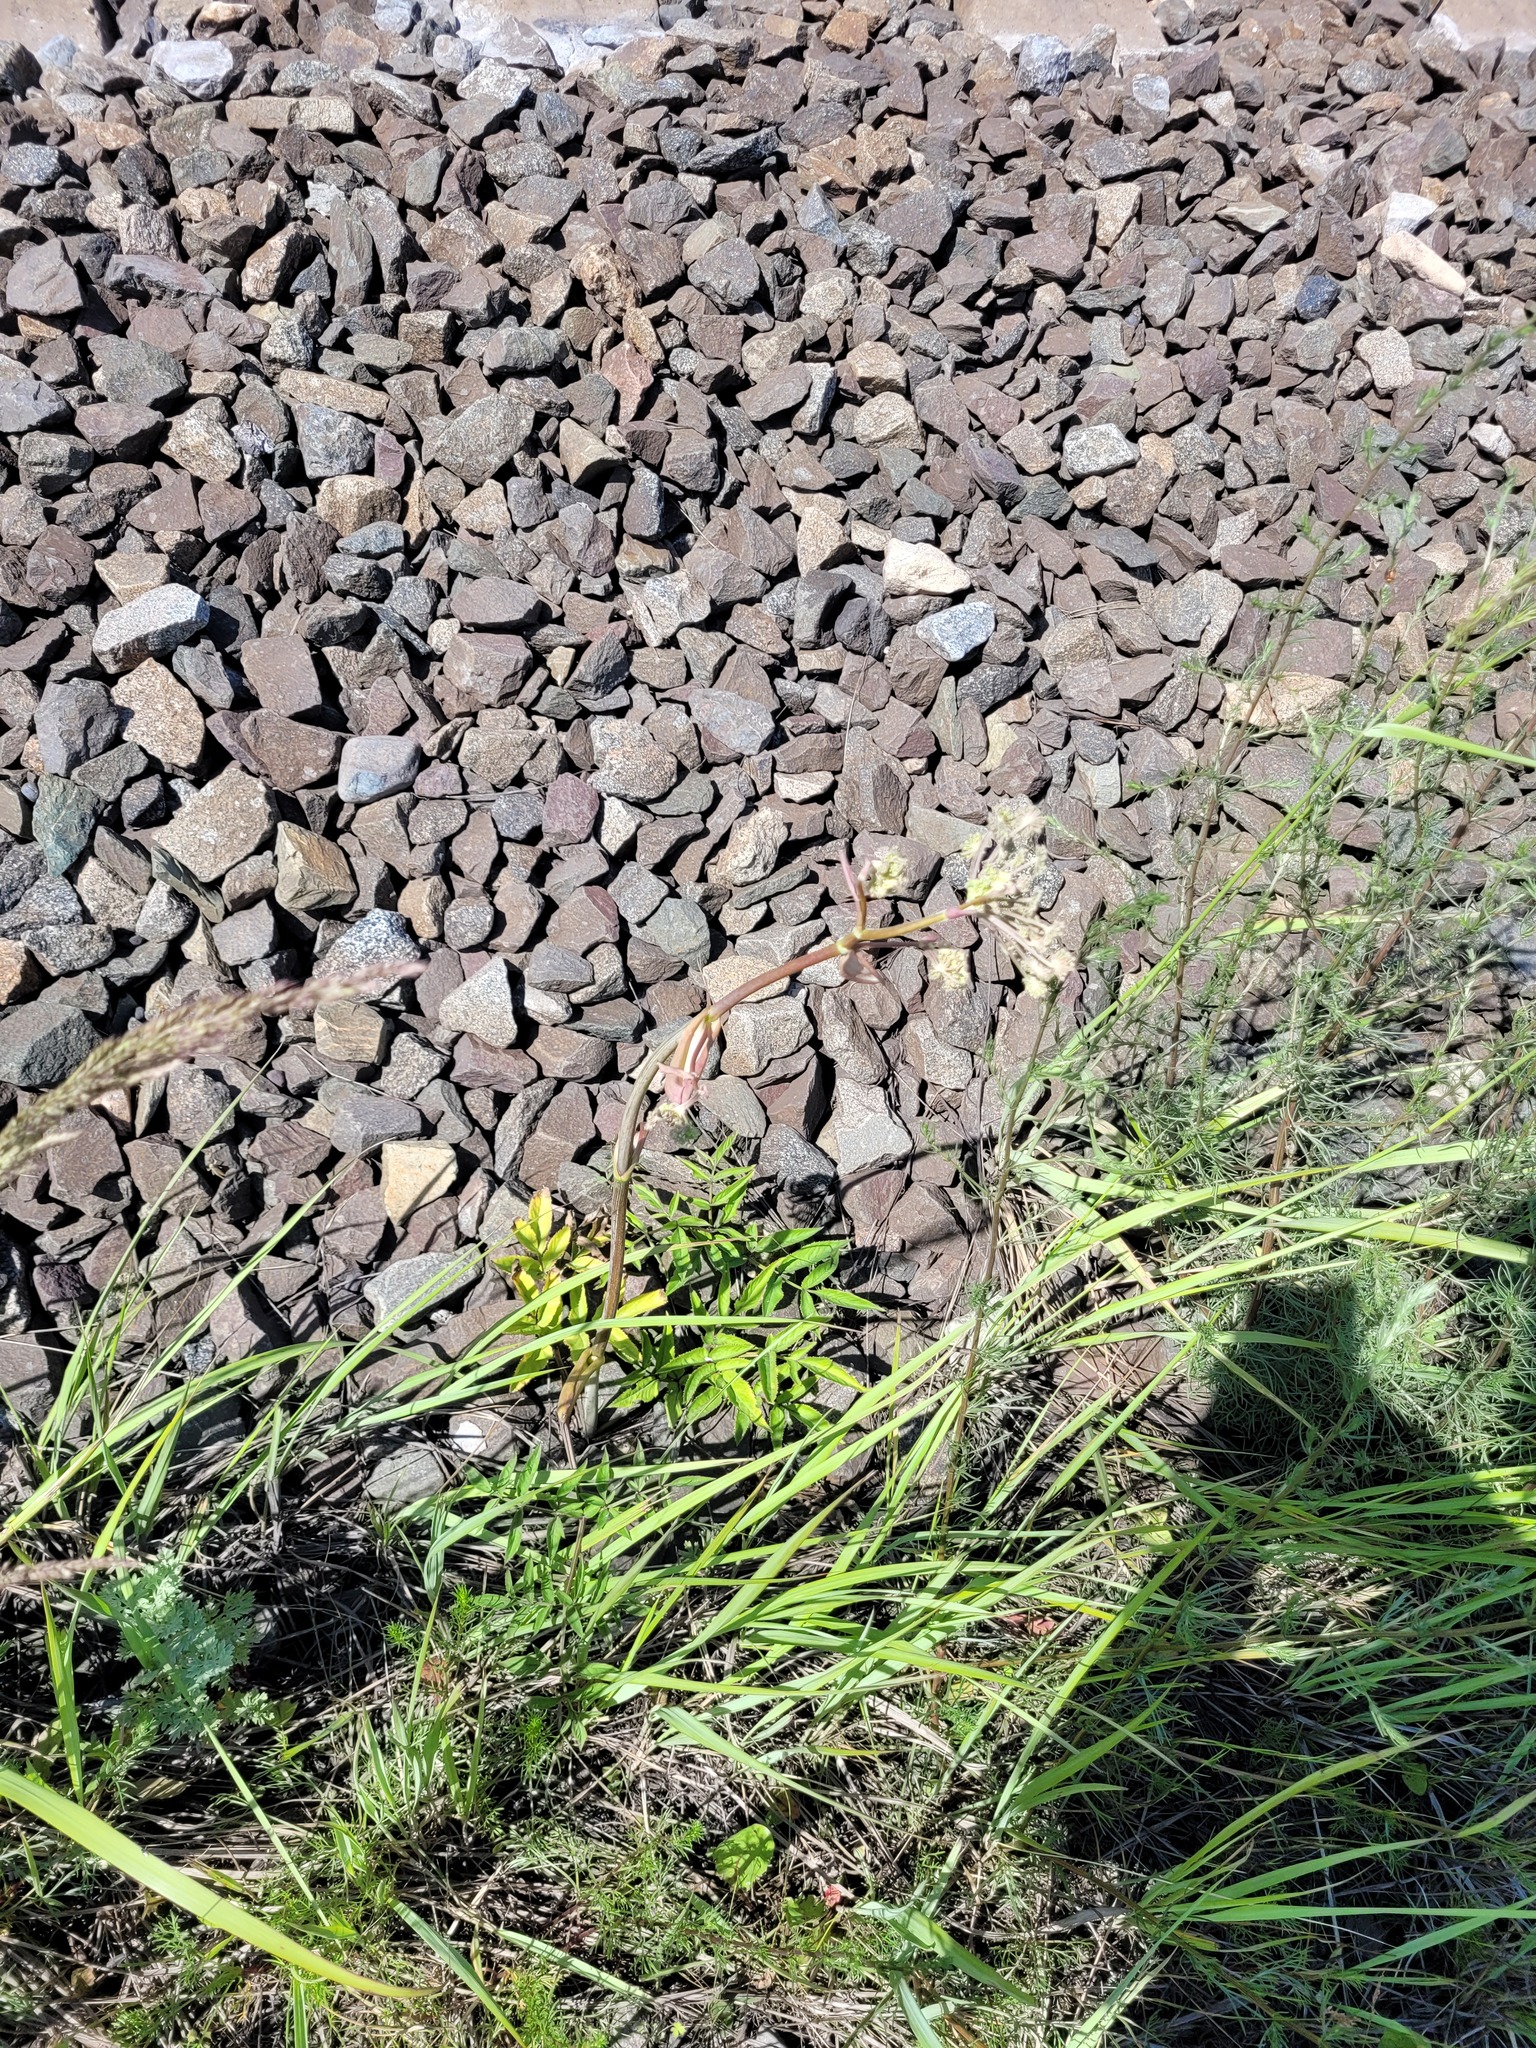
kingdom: Plantae
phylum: Tracheophyta
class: Magnoliopsida
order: Apiales
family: Apiaceae
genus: Angelica
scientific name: Angelica sylvestris
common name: Wild angelica
